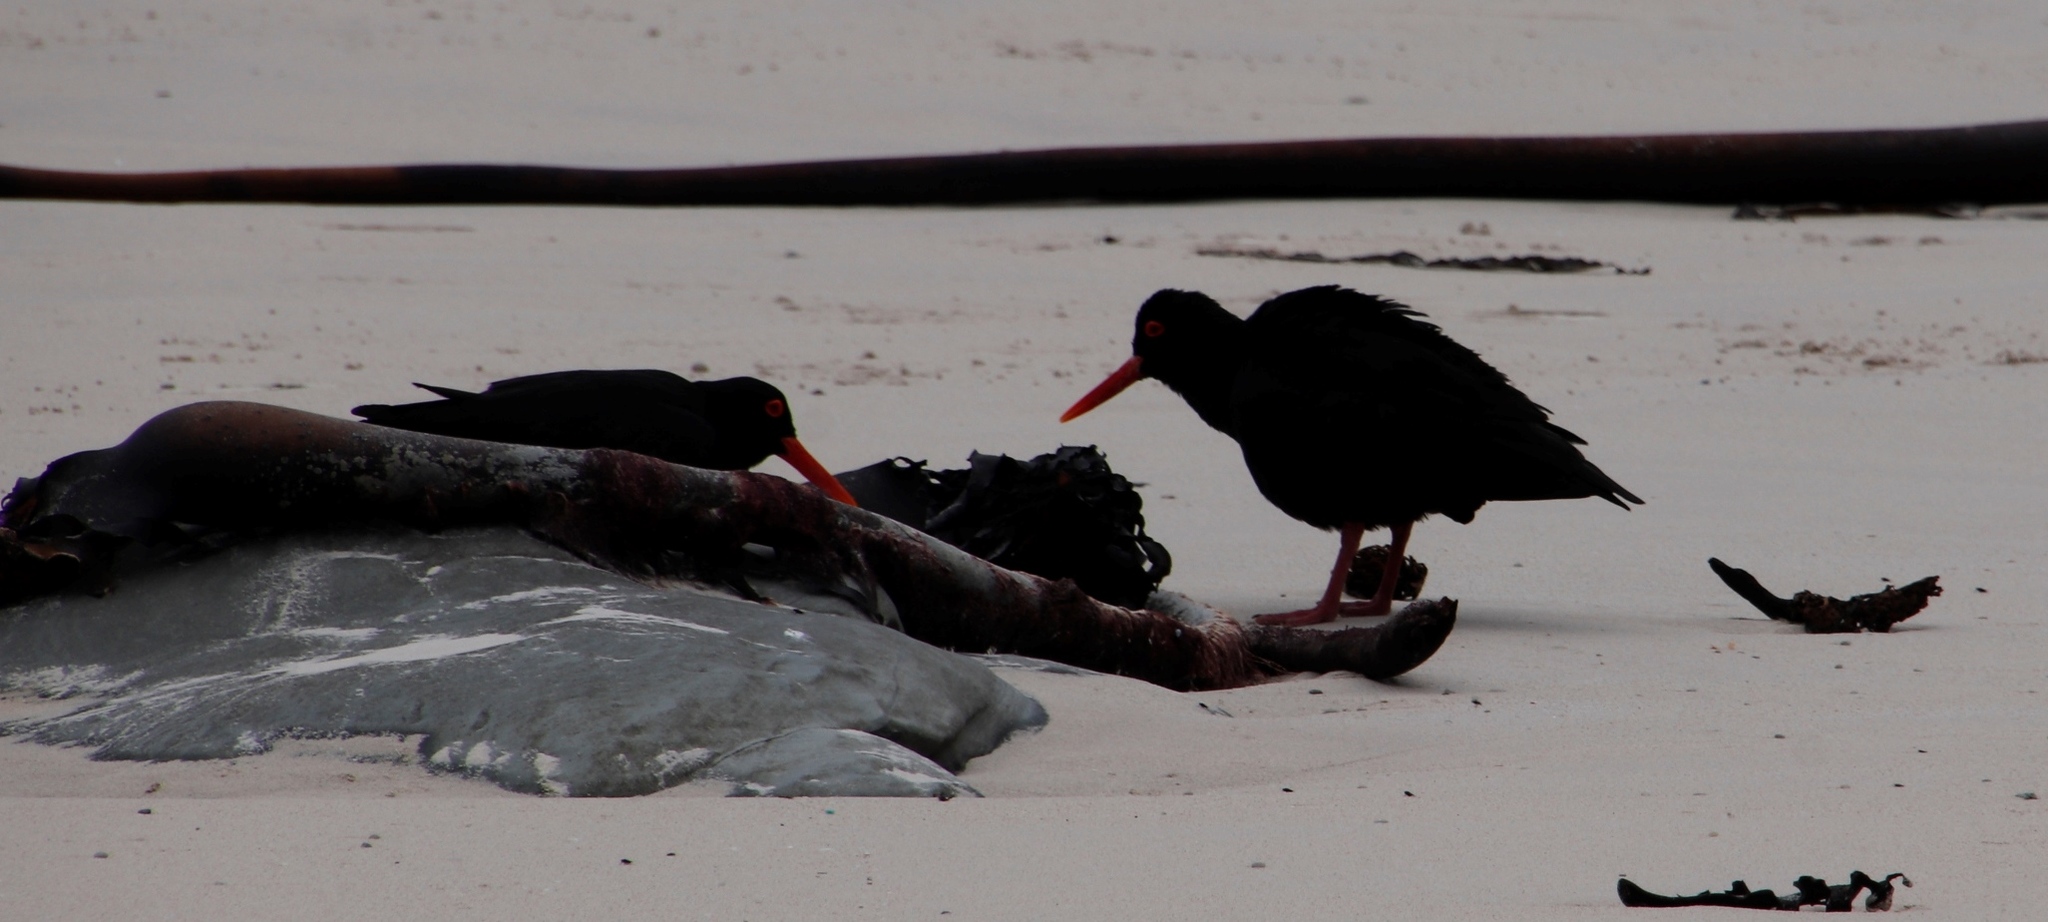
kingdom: Animalia
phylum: Chordata
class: Aves
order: Charadriiformes
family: Haematopodidae
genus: Haematopus
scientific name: Haematopus moquini
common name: African oystercatcher
